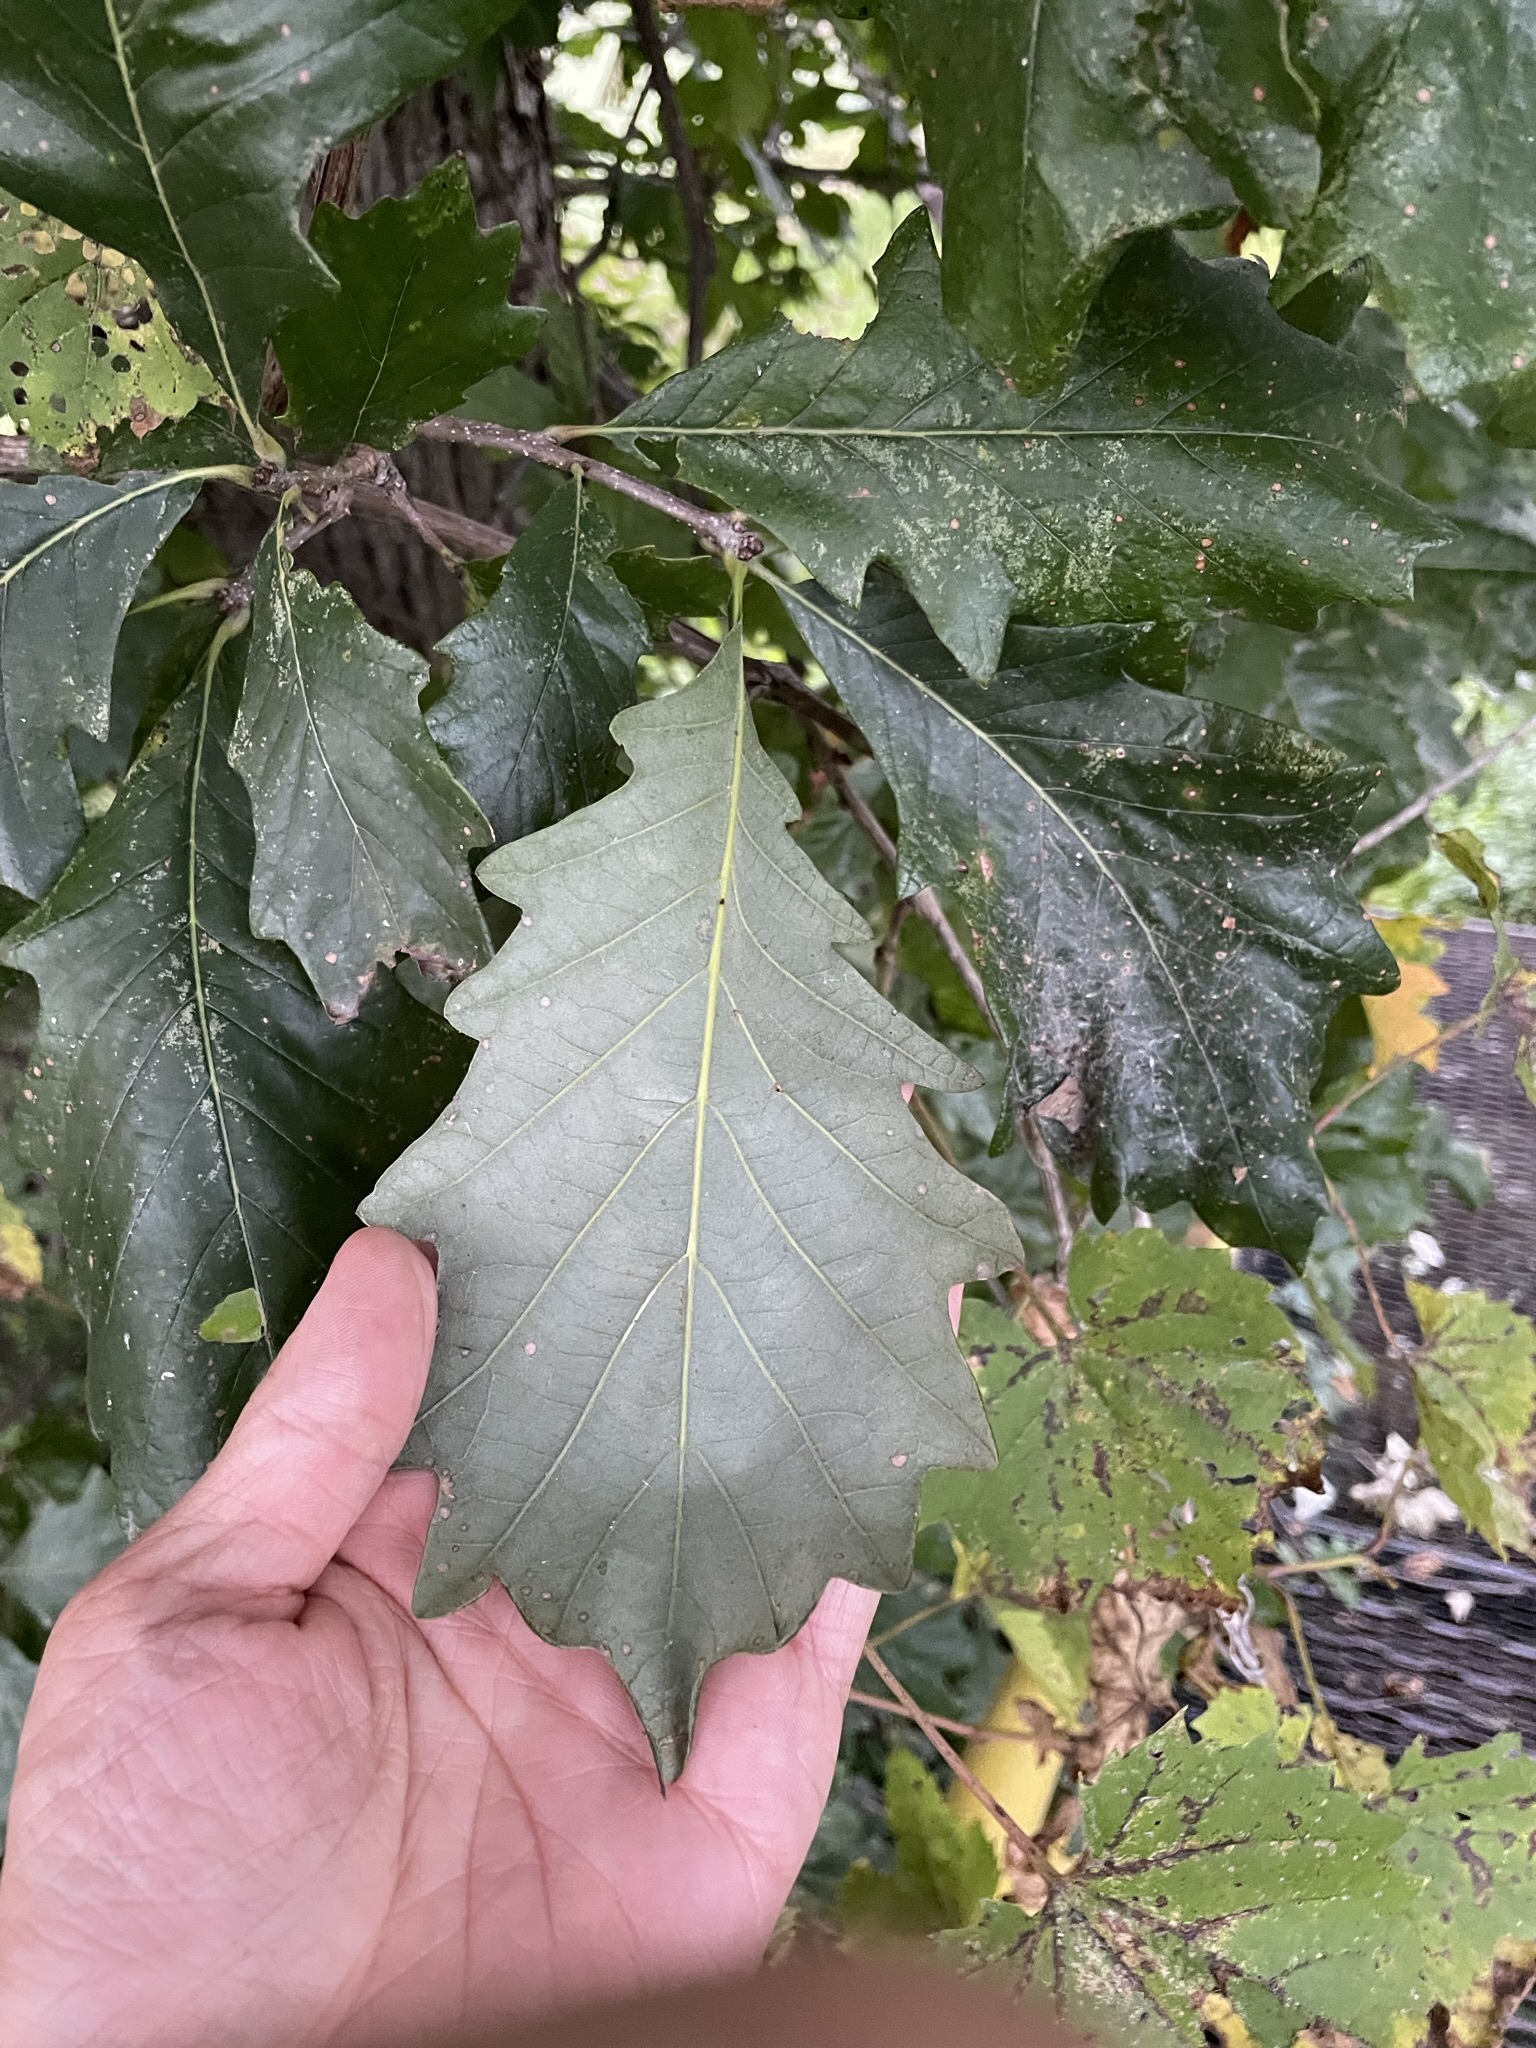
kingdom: Plantae
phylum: Tracheophyta
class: Magnoliopsida
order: Fagales
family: Fagaceae
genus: Quercus
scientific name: Quercus bicolor
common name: Swamp white oak
